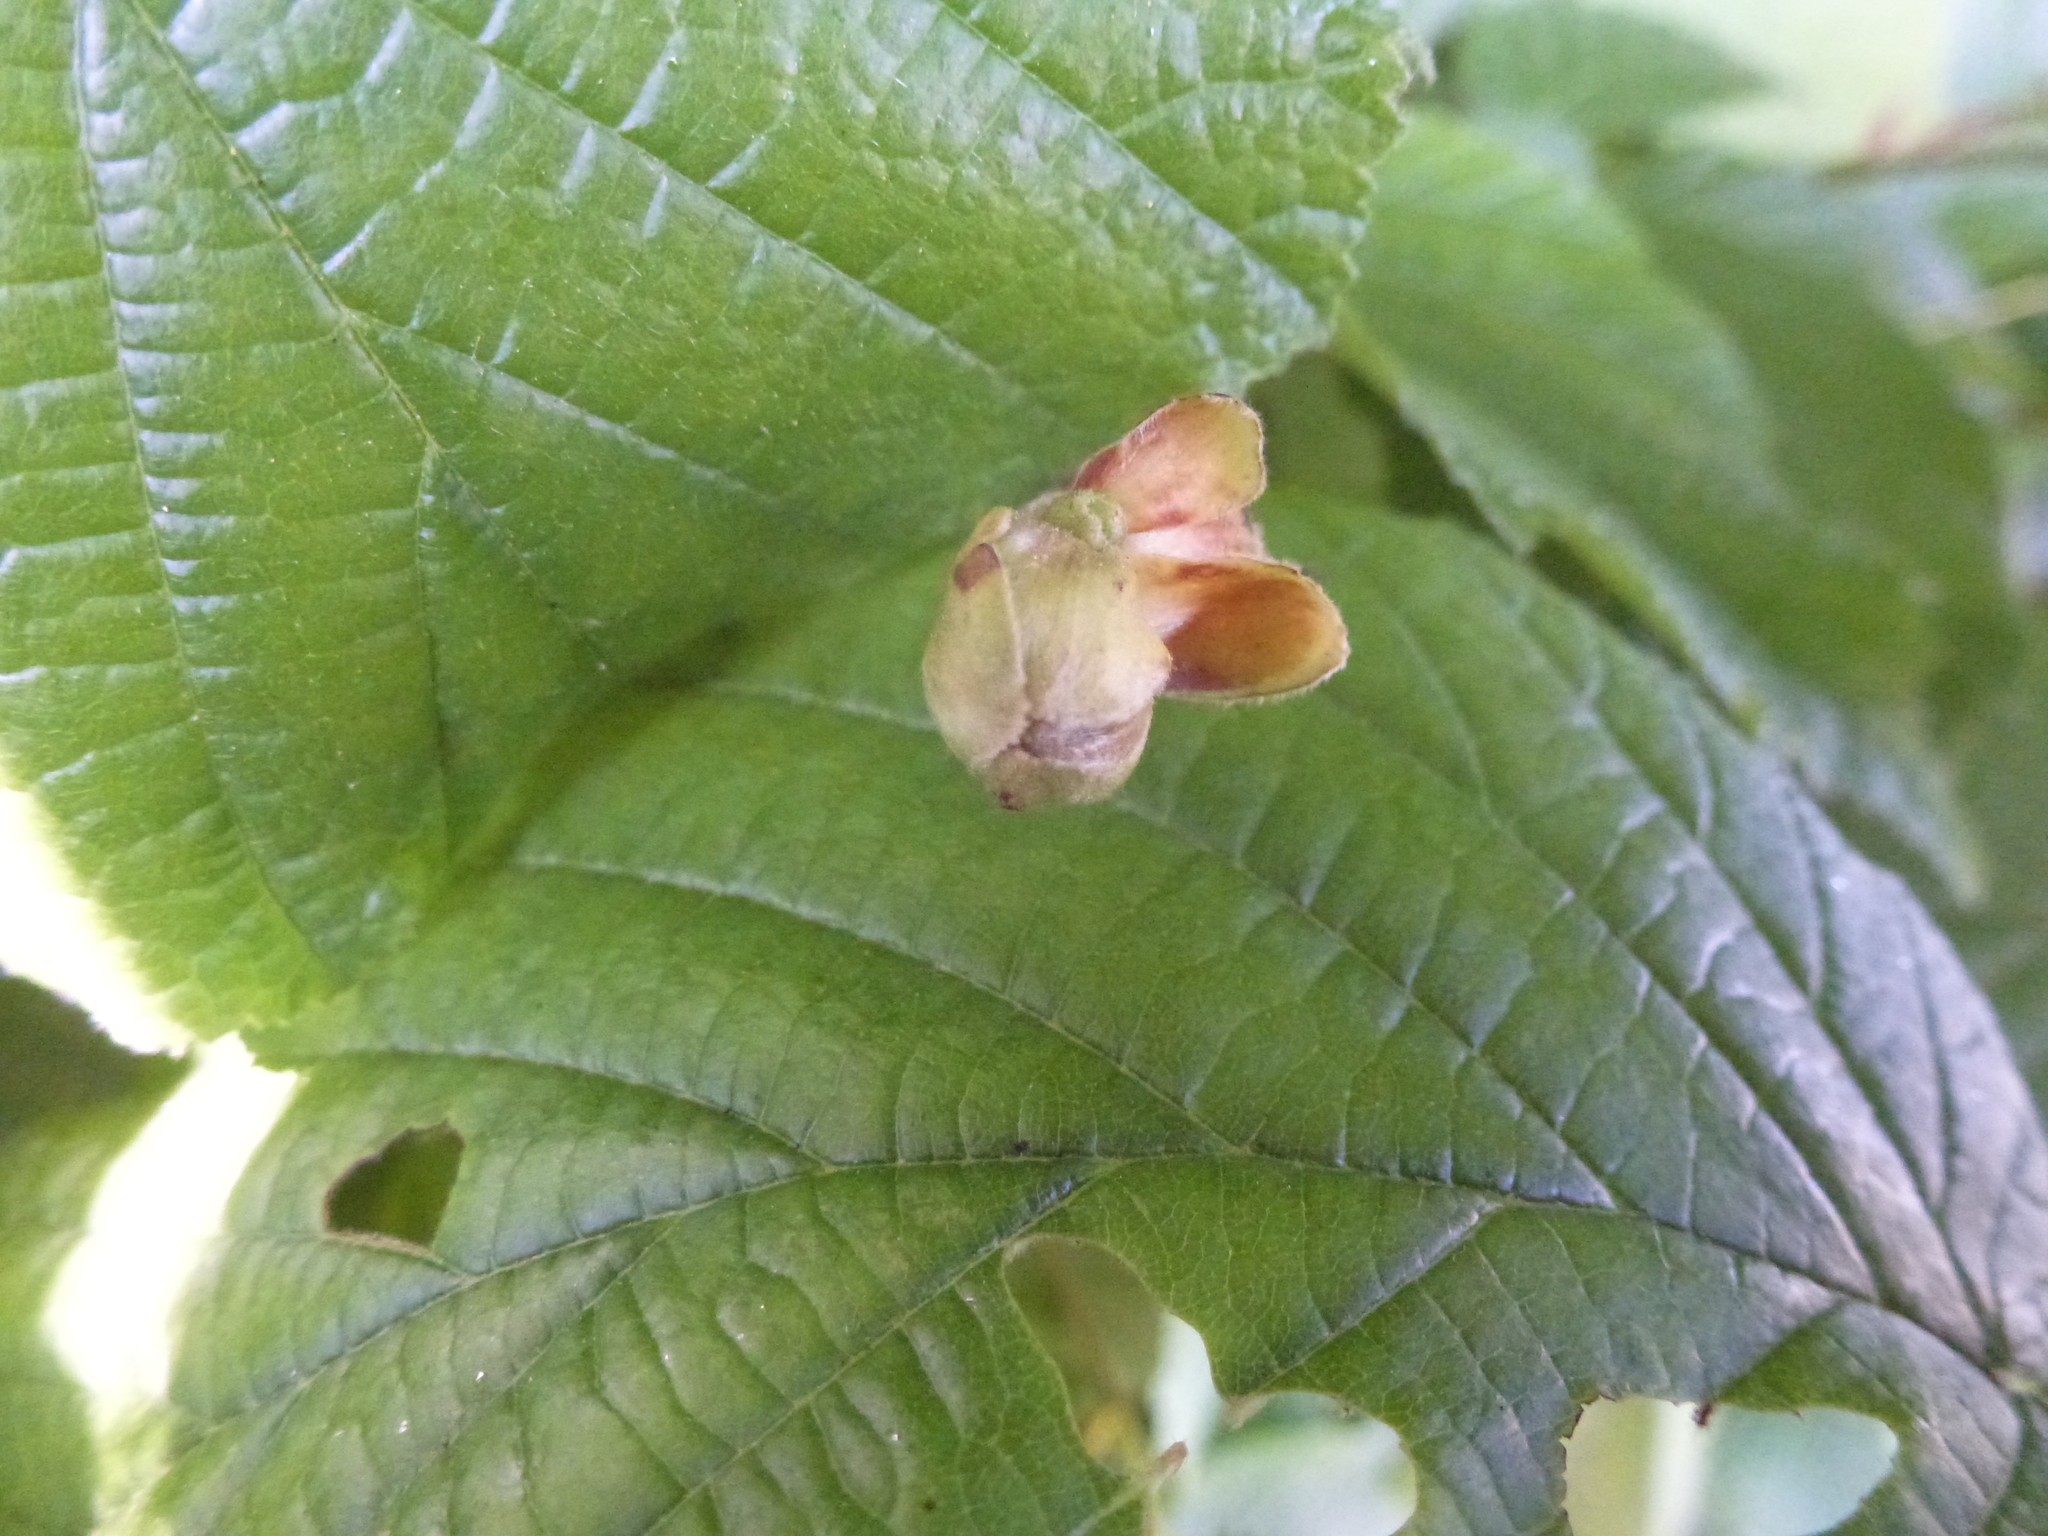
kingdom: Animalia
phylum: Arthropoda
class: Arachnida
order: Trombidiformes
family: Phytoptidae
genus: Phytoptus
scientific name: Phytoptus avellanae
